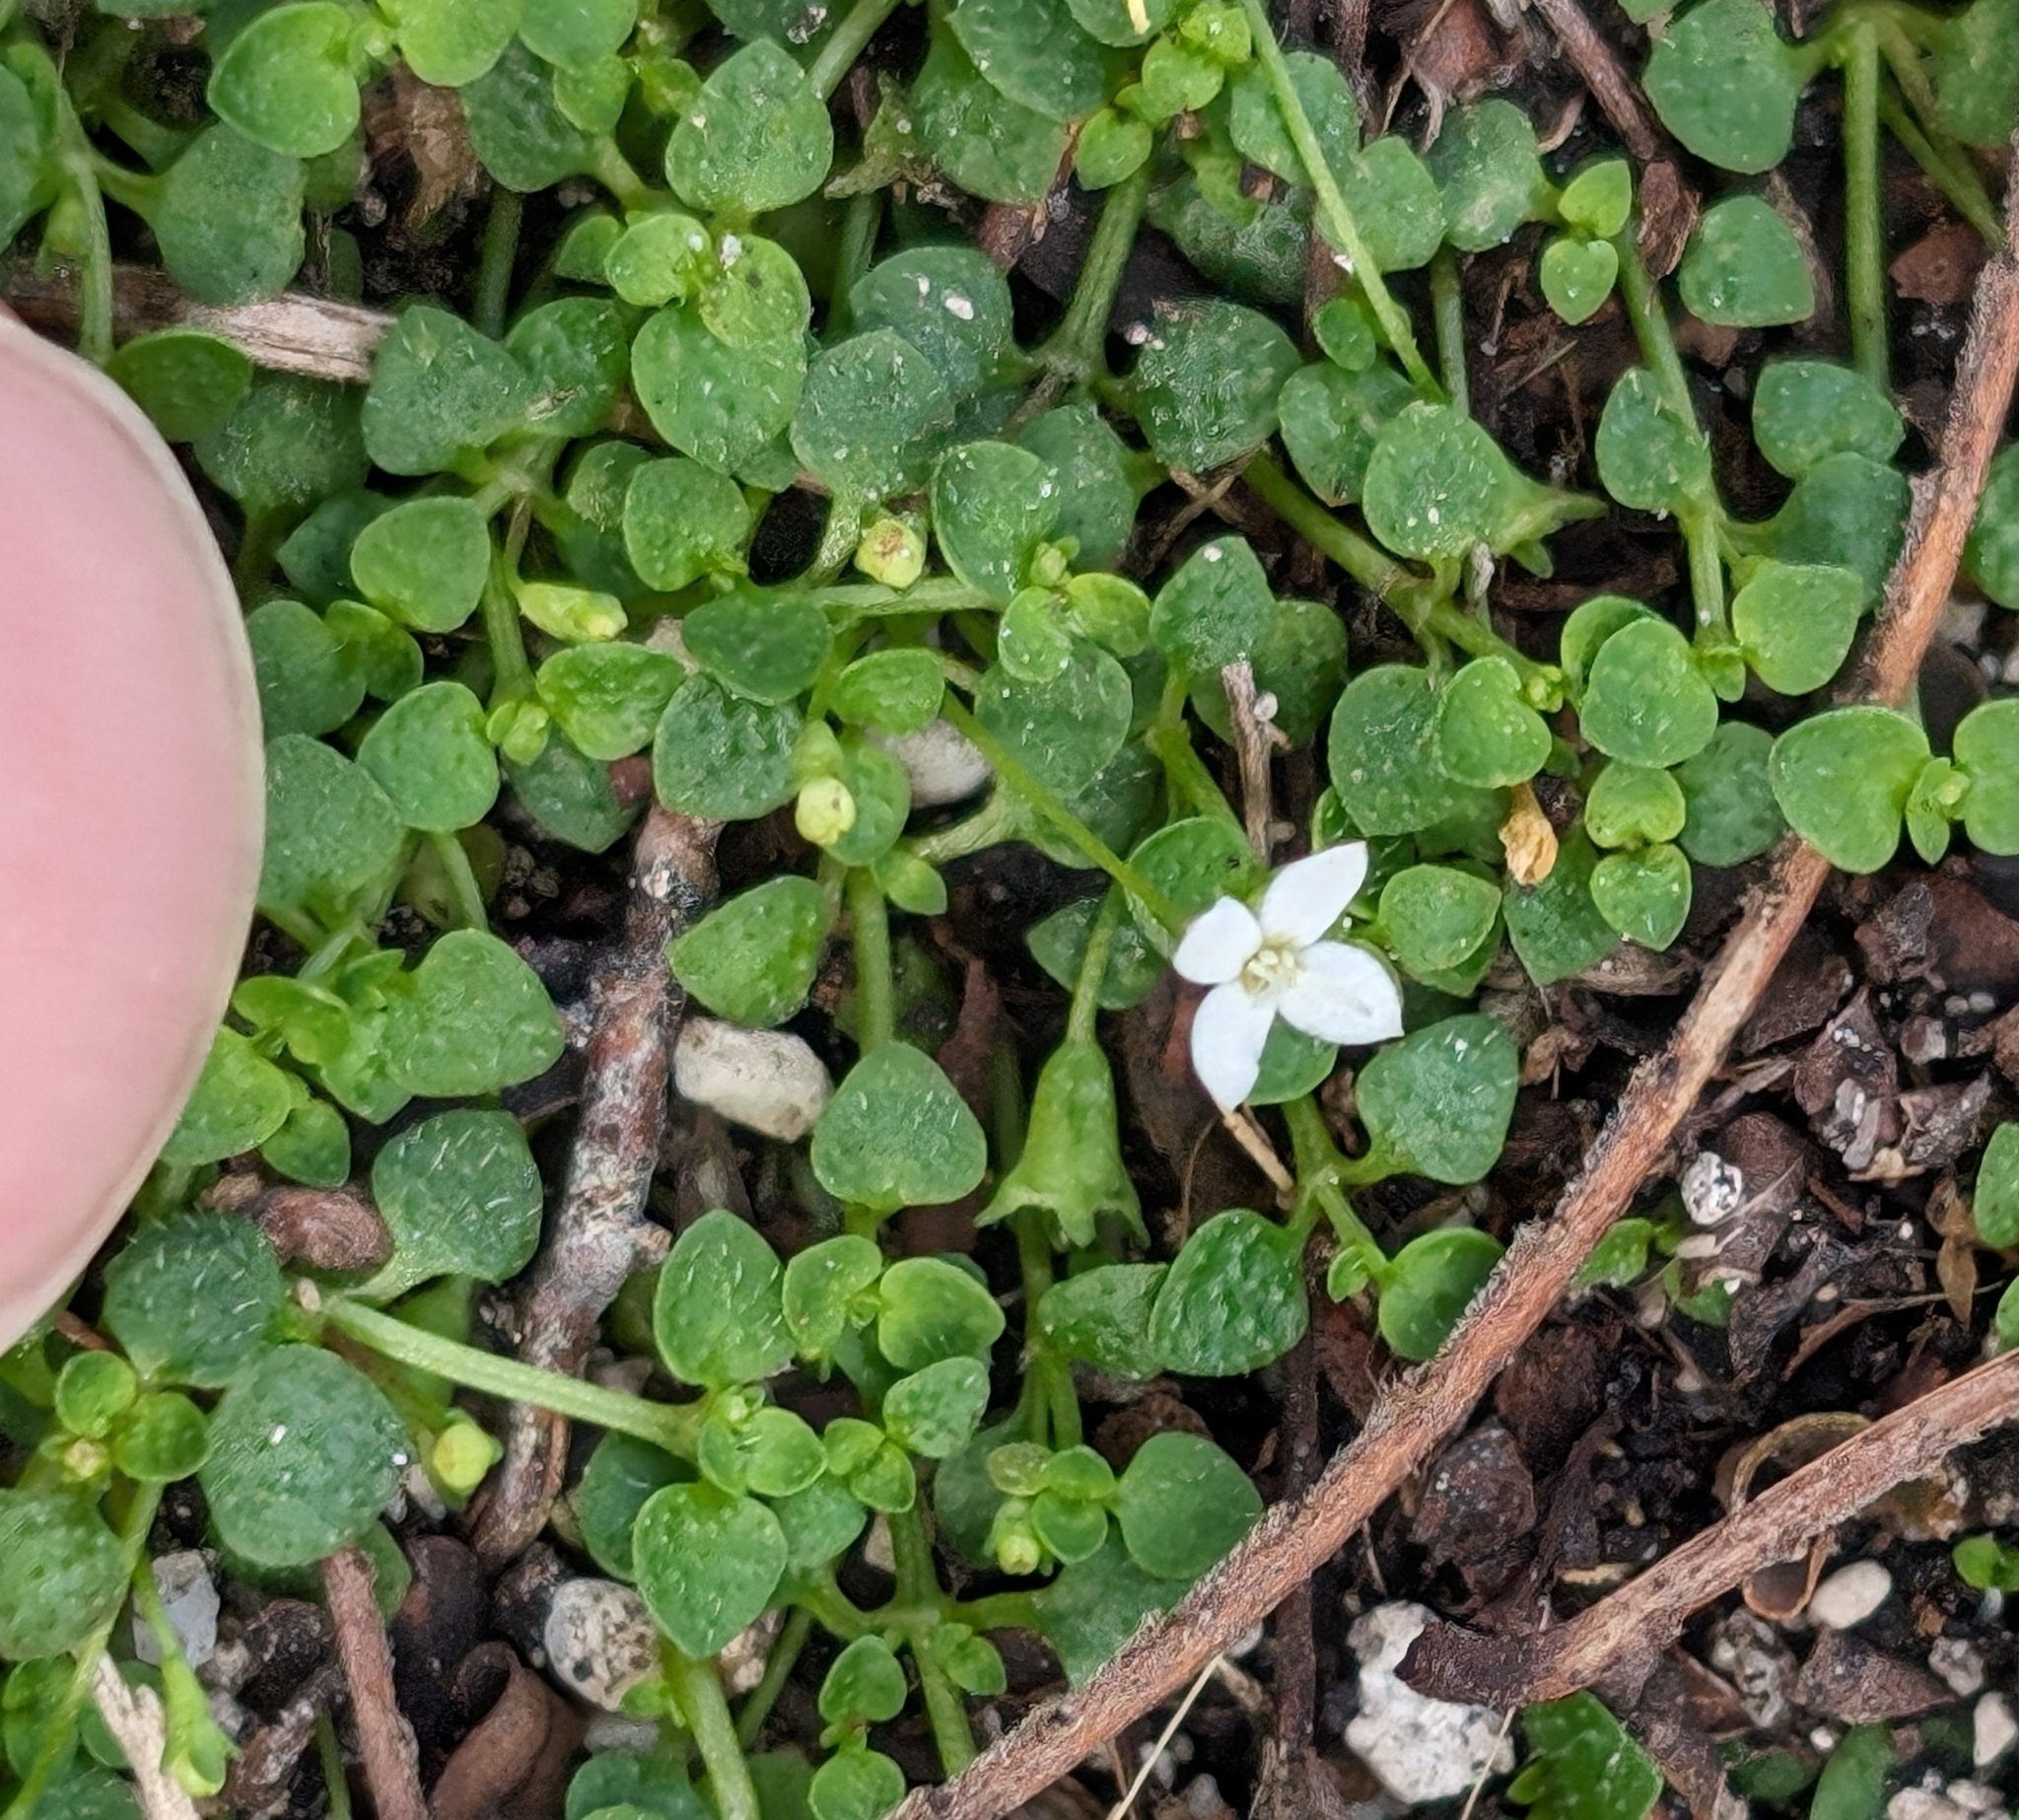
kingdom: Plantae
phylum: Tracheophyta
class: Magnoliopsida
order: Gentianales
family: Rubiaceae
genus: Oldenlandiopsis
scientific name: Oldenlandiopsis callitrichoides
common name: Creeping-bluet
